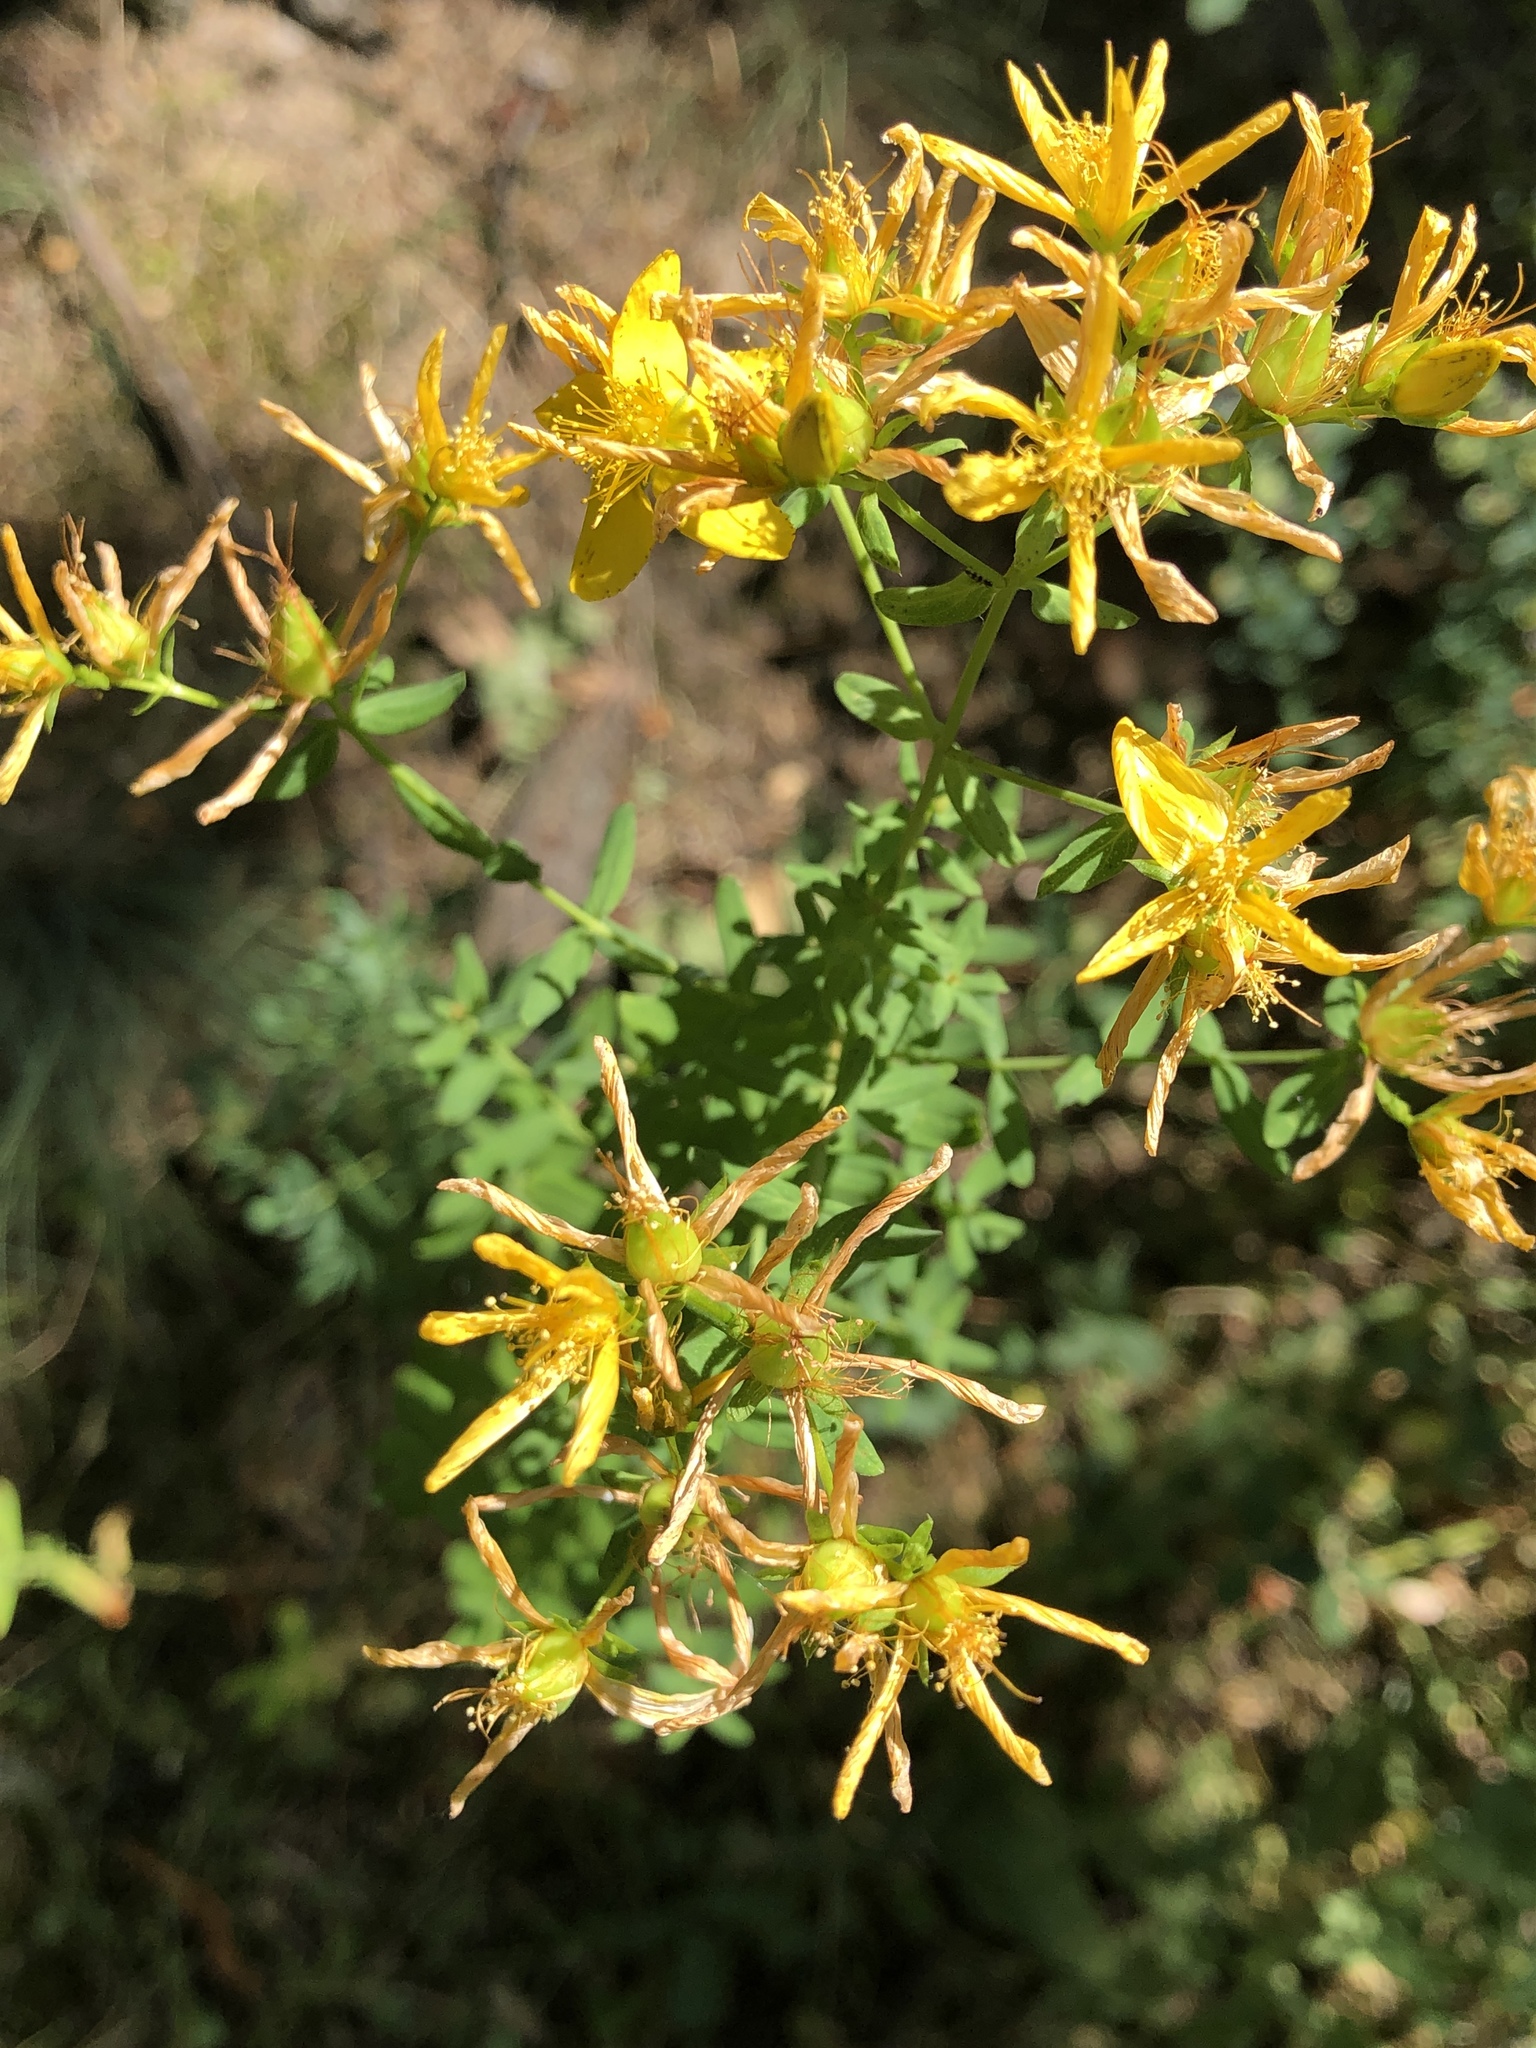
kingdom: Plantae
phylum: Tracheophyta
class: Magnoliopsida
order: Malpighiales
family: Hypericaceae
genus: Hypericum
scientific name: Hypericum perforatum
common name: Common st. johnswort
